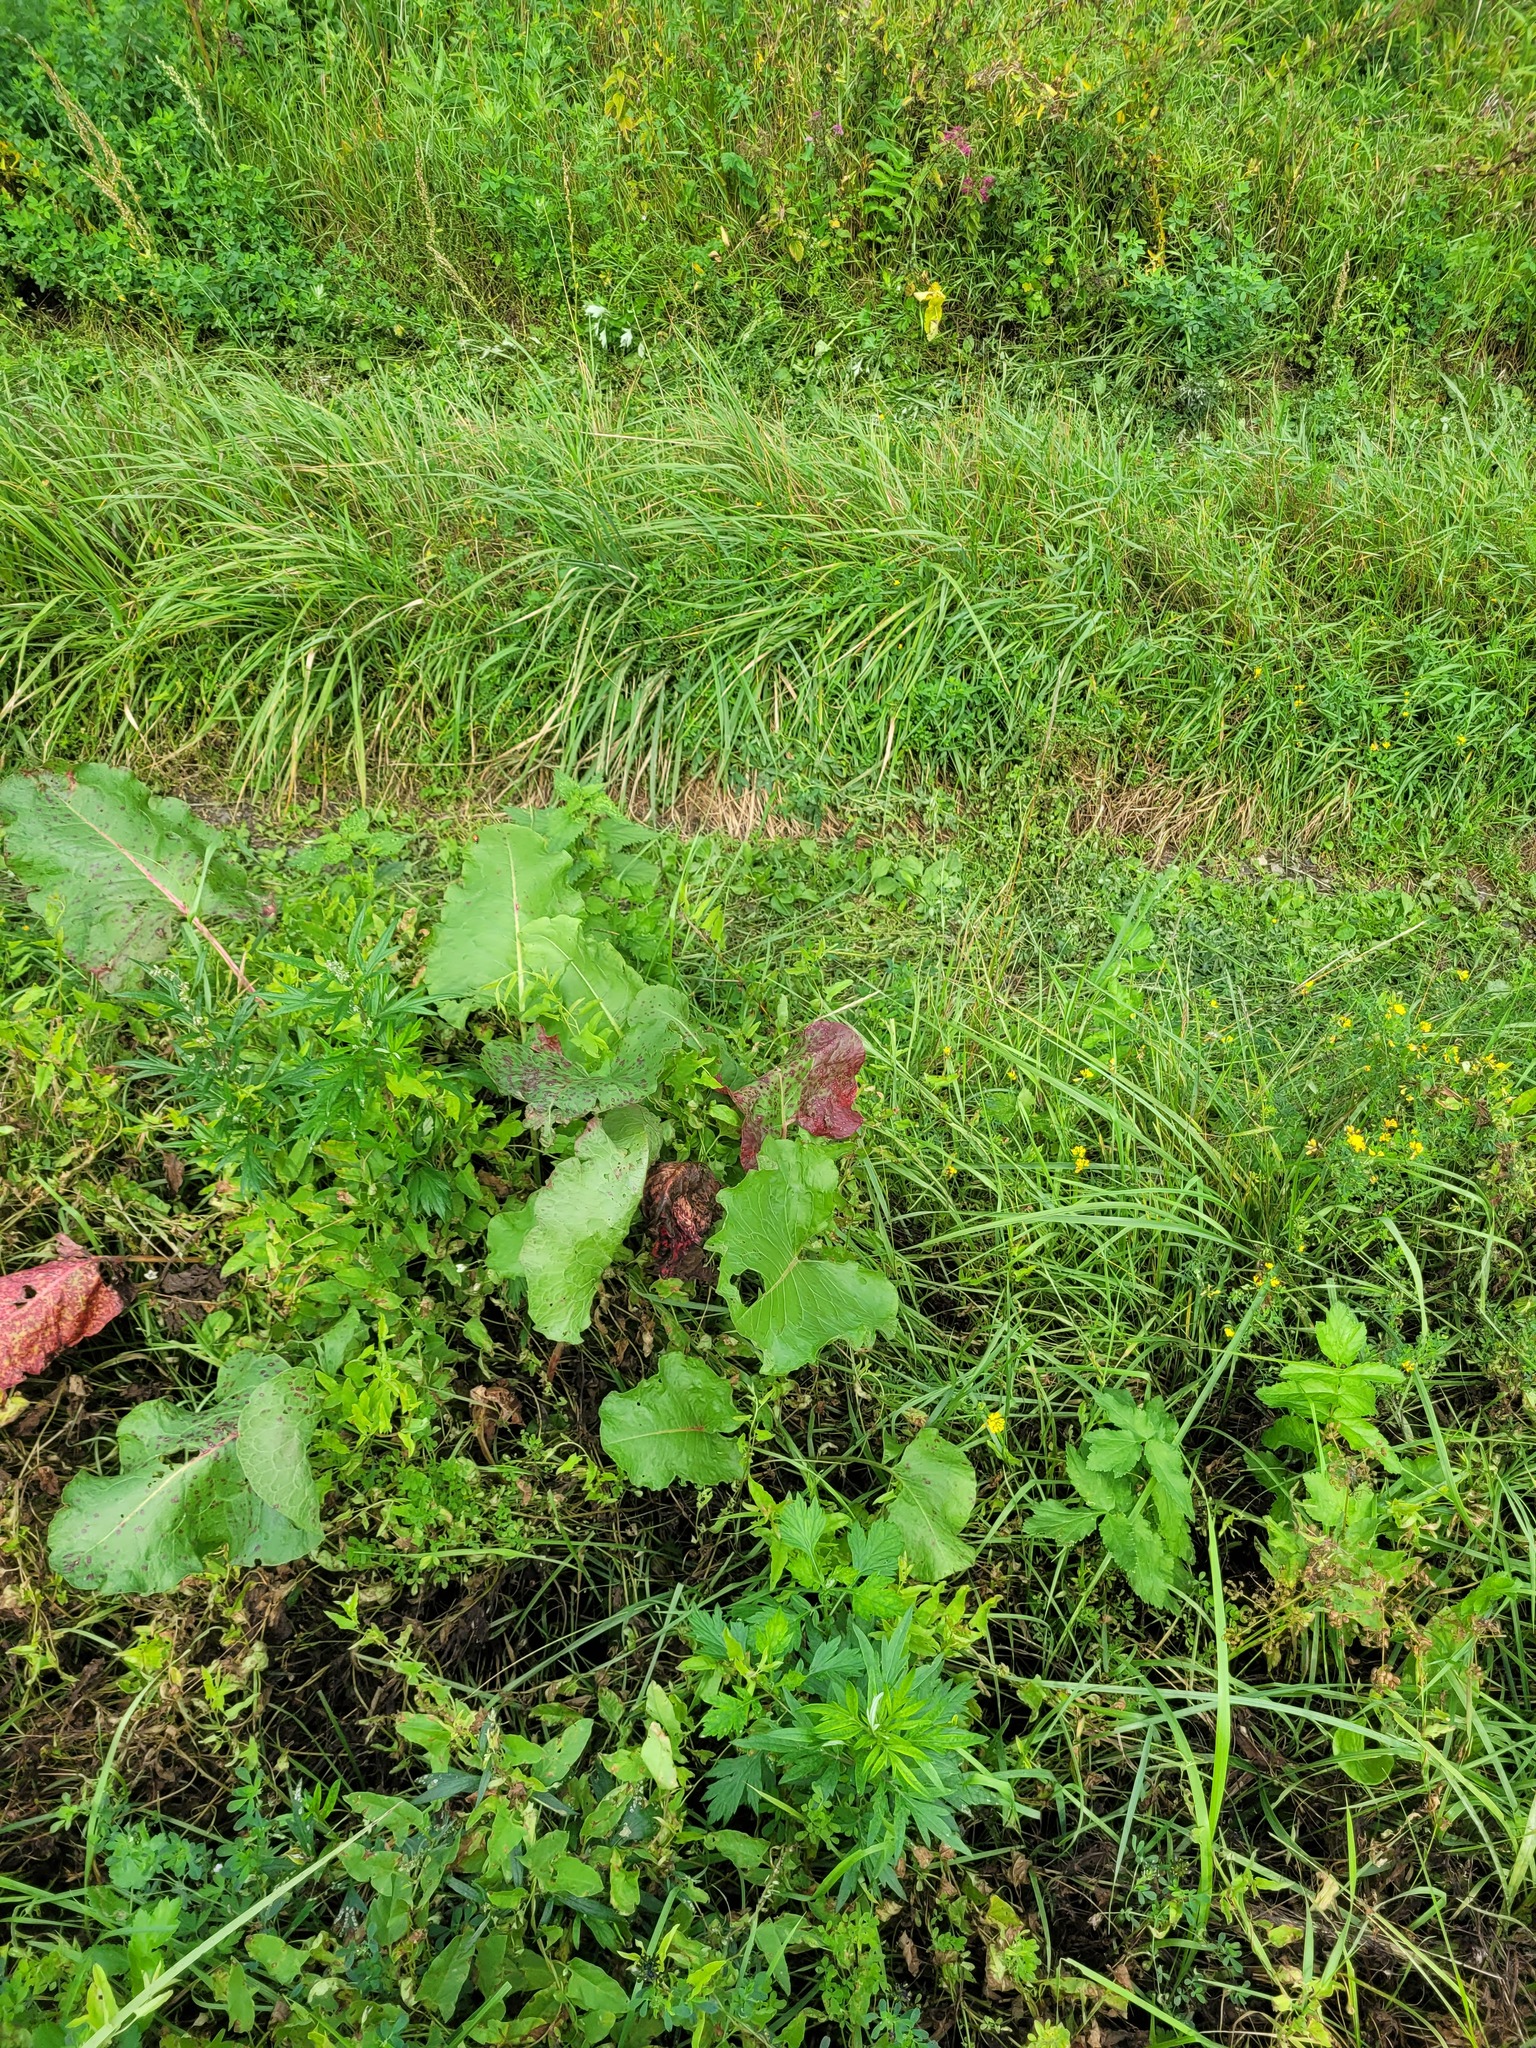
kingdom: Plantae
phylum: Tracheophyta
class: Magnoliopsida
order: Caryophyllales
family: Polygonaceae
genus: Rumex
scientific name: Rumex confertus
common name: Russian dock
